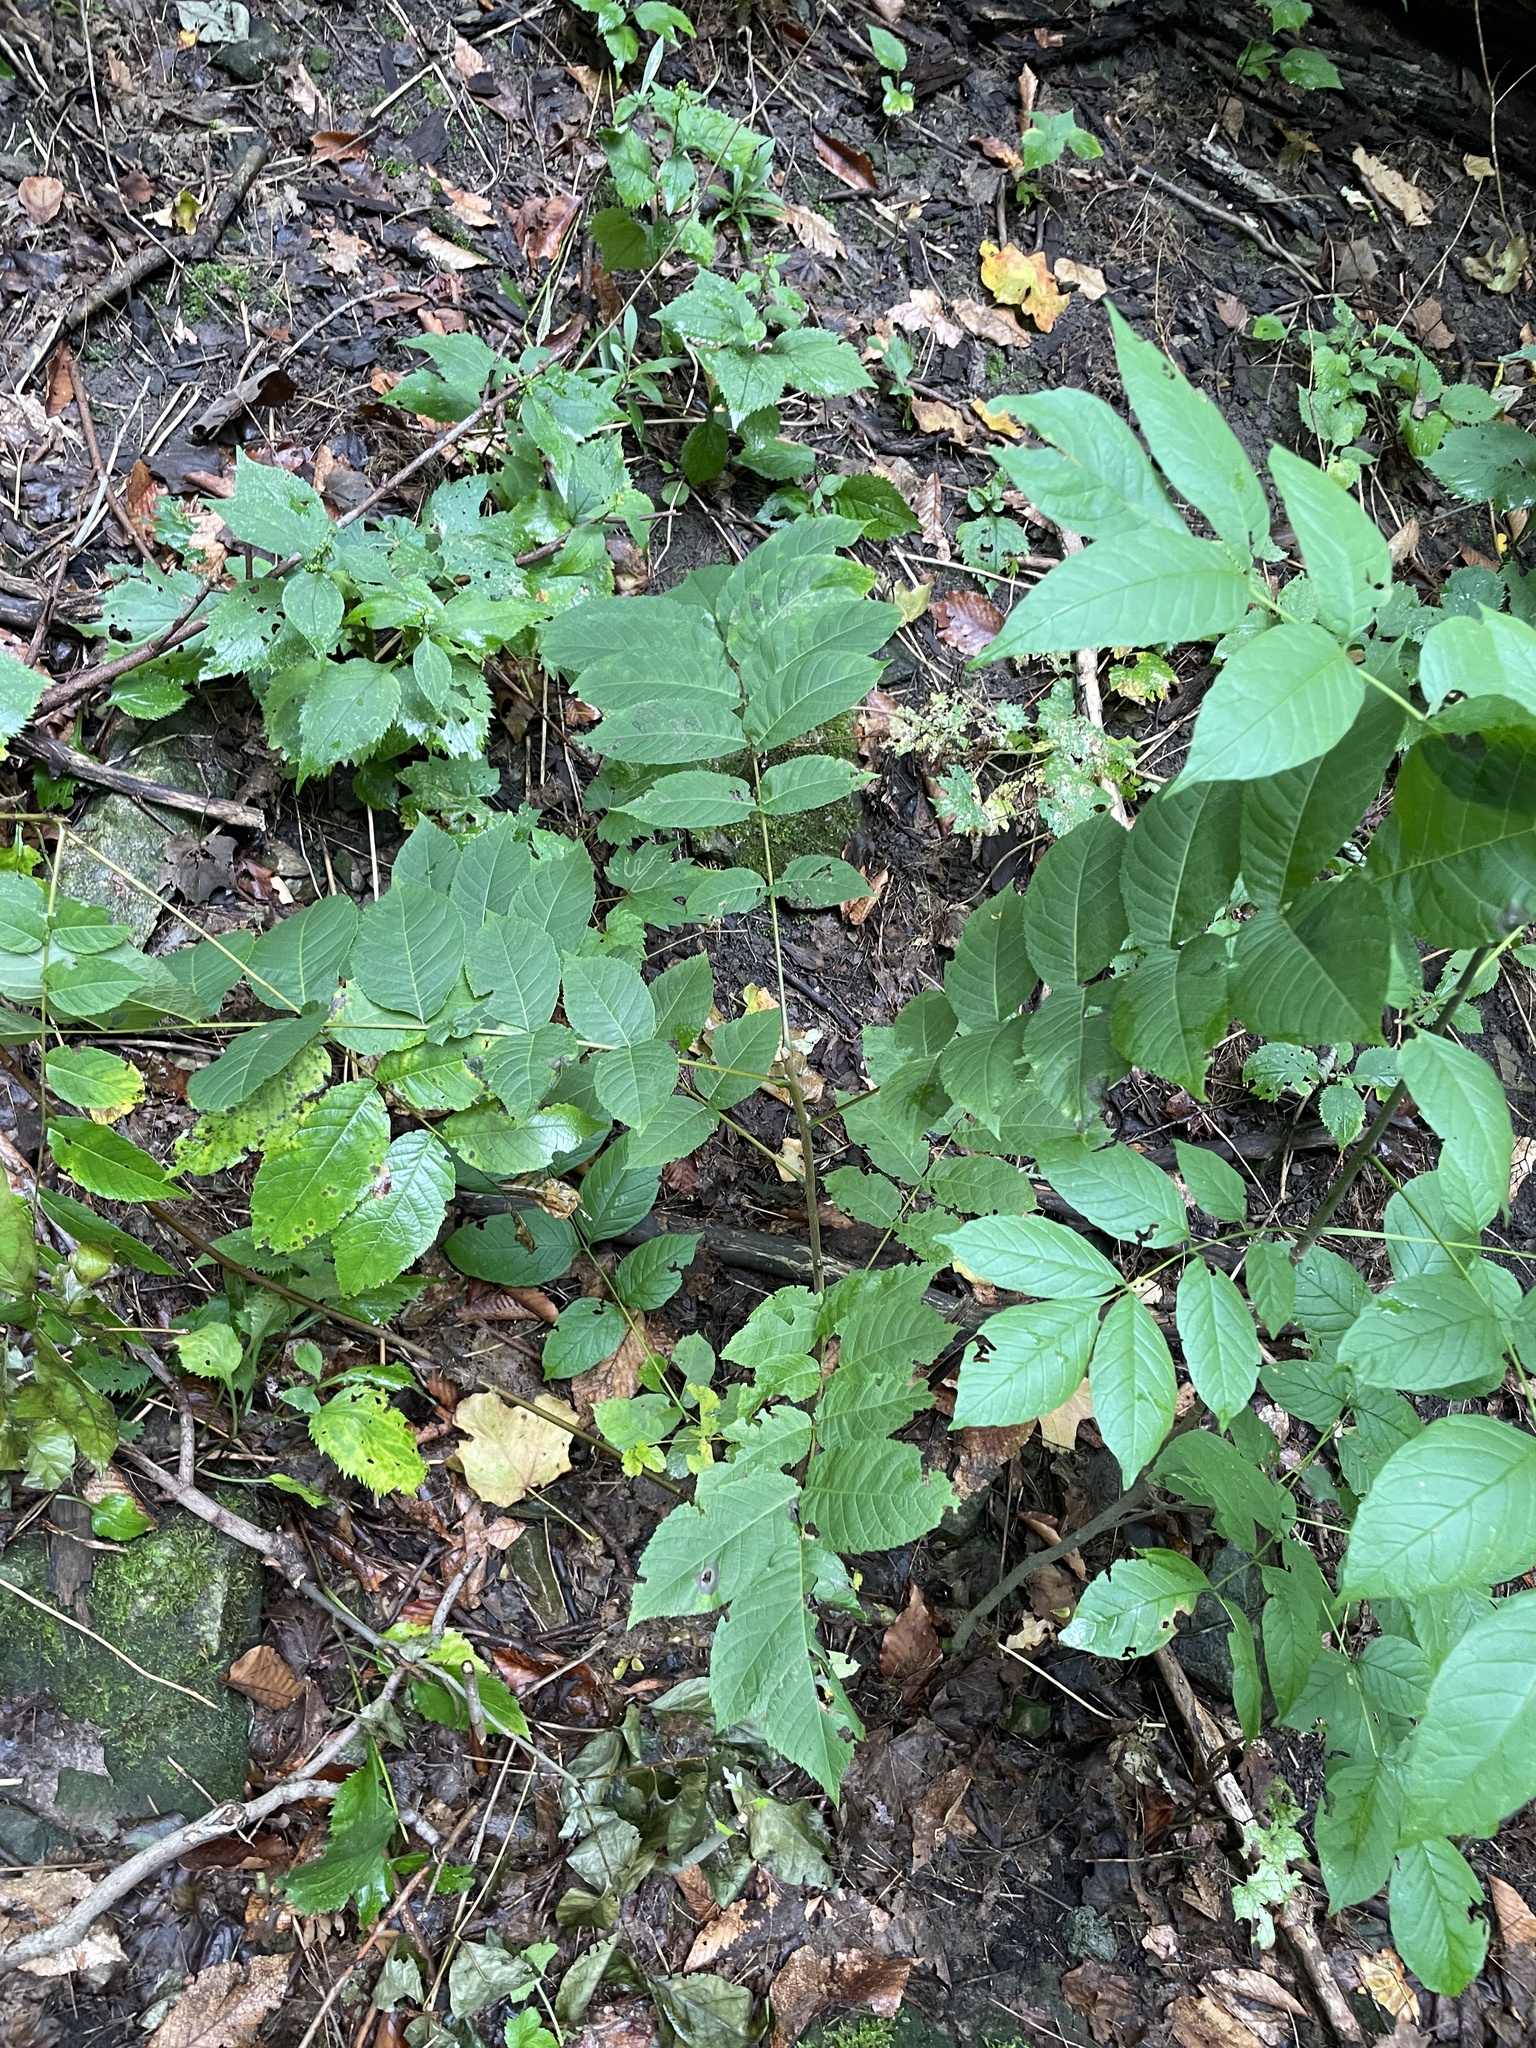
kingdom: Plantae
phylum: Tracheophyta
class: Magnoliopsida
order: Fagales
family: Juglandaceae
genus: Juglans
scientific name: Juglans cinerea
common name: Butternut
